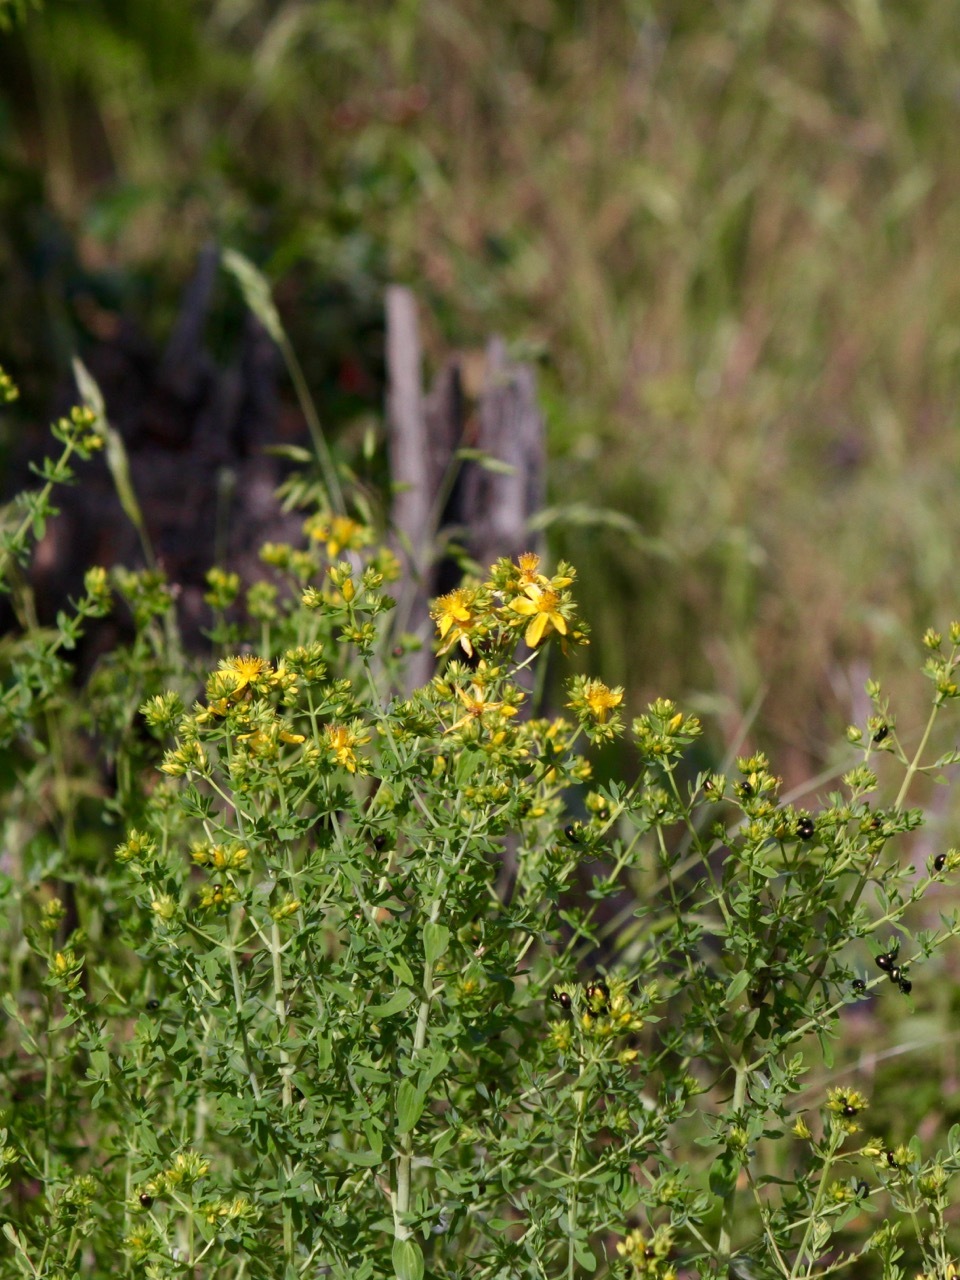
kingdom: Plantae
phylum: Tracheophyta
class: Magnoliopsida
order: Malpighiales
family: Hypericaceae
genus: Hypericum
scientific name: Hypericum perforatum
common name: Common st. johnswort
